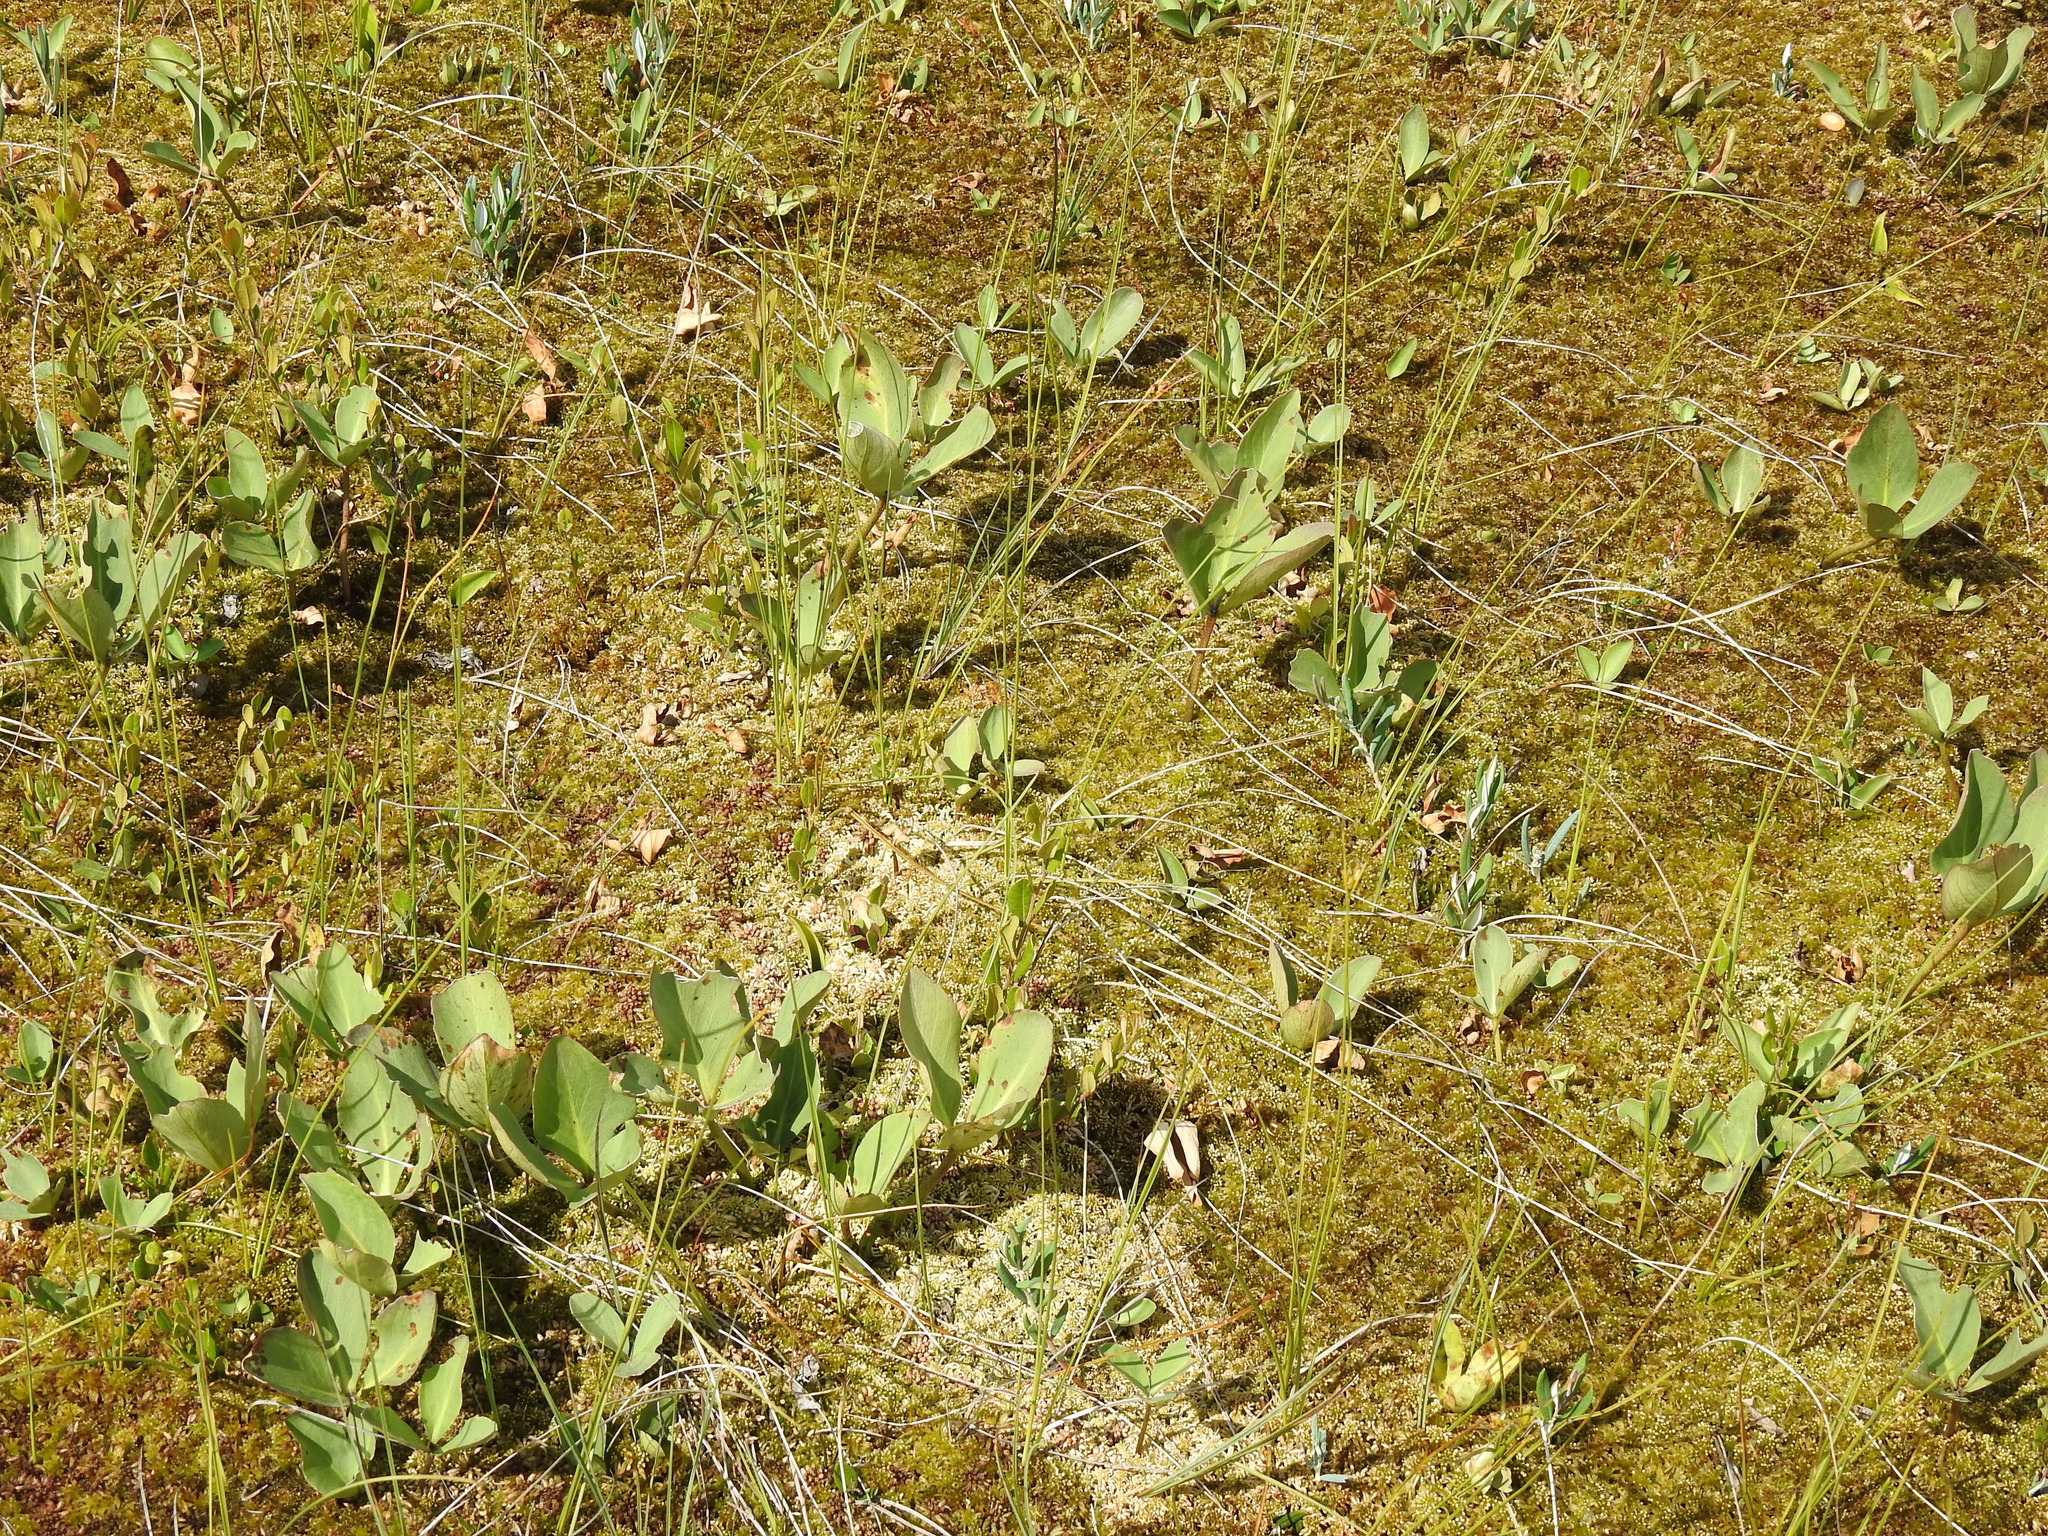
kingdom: Plantae
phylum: Tracheophyta
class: Magnoliopsida
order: Asterales
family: Menyanthaceae
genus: Menyanthes
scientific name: Menyanthes trifoliata
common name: Bogbean
